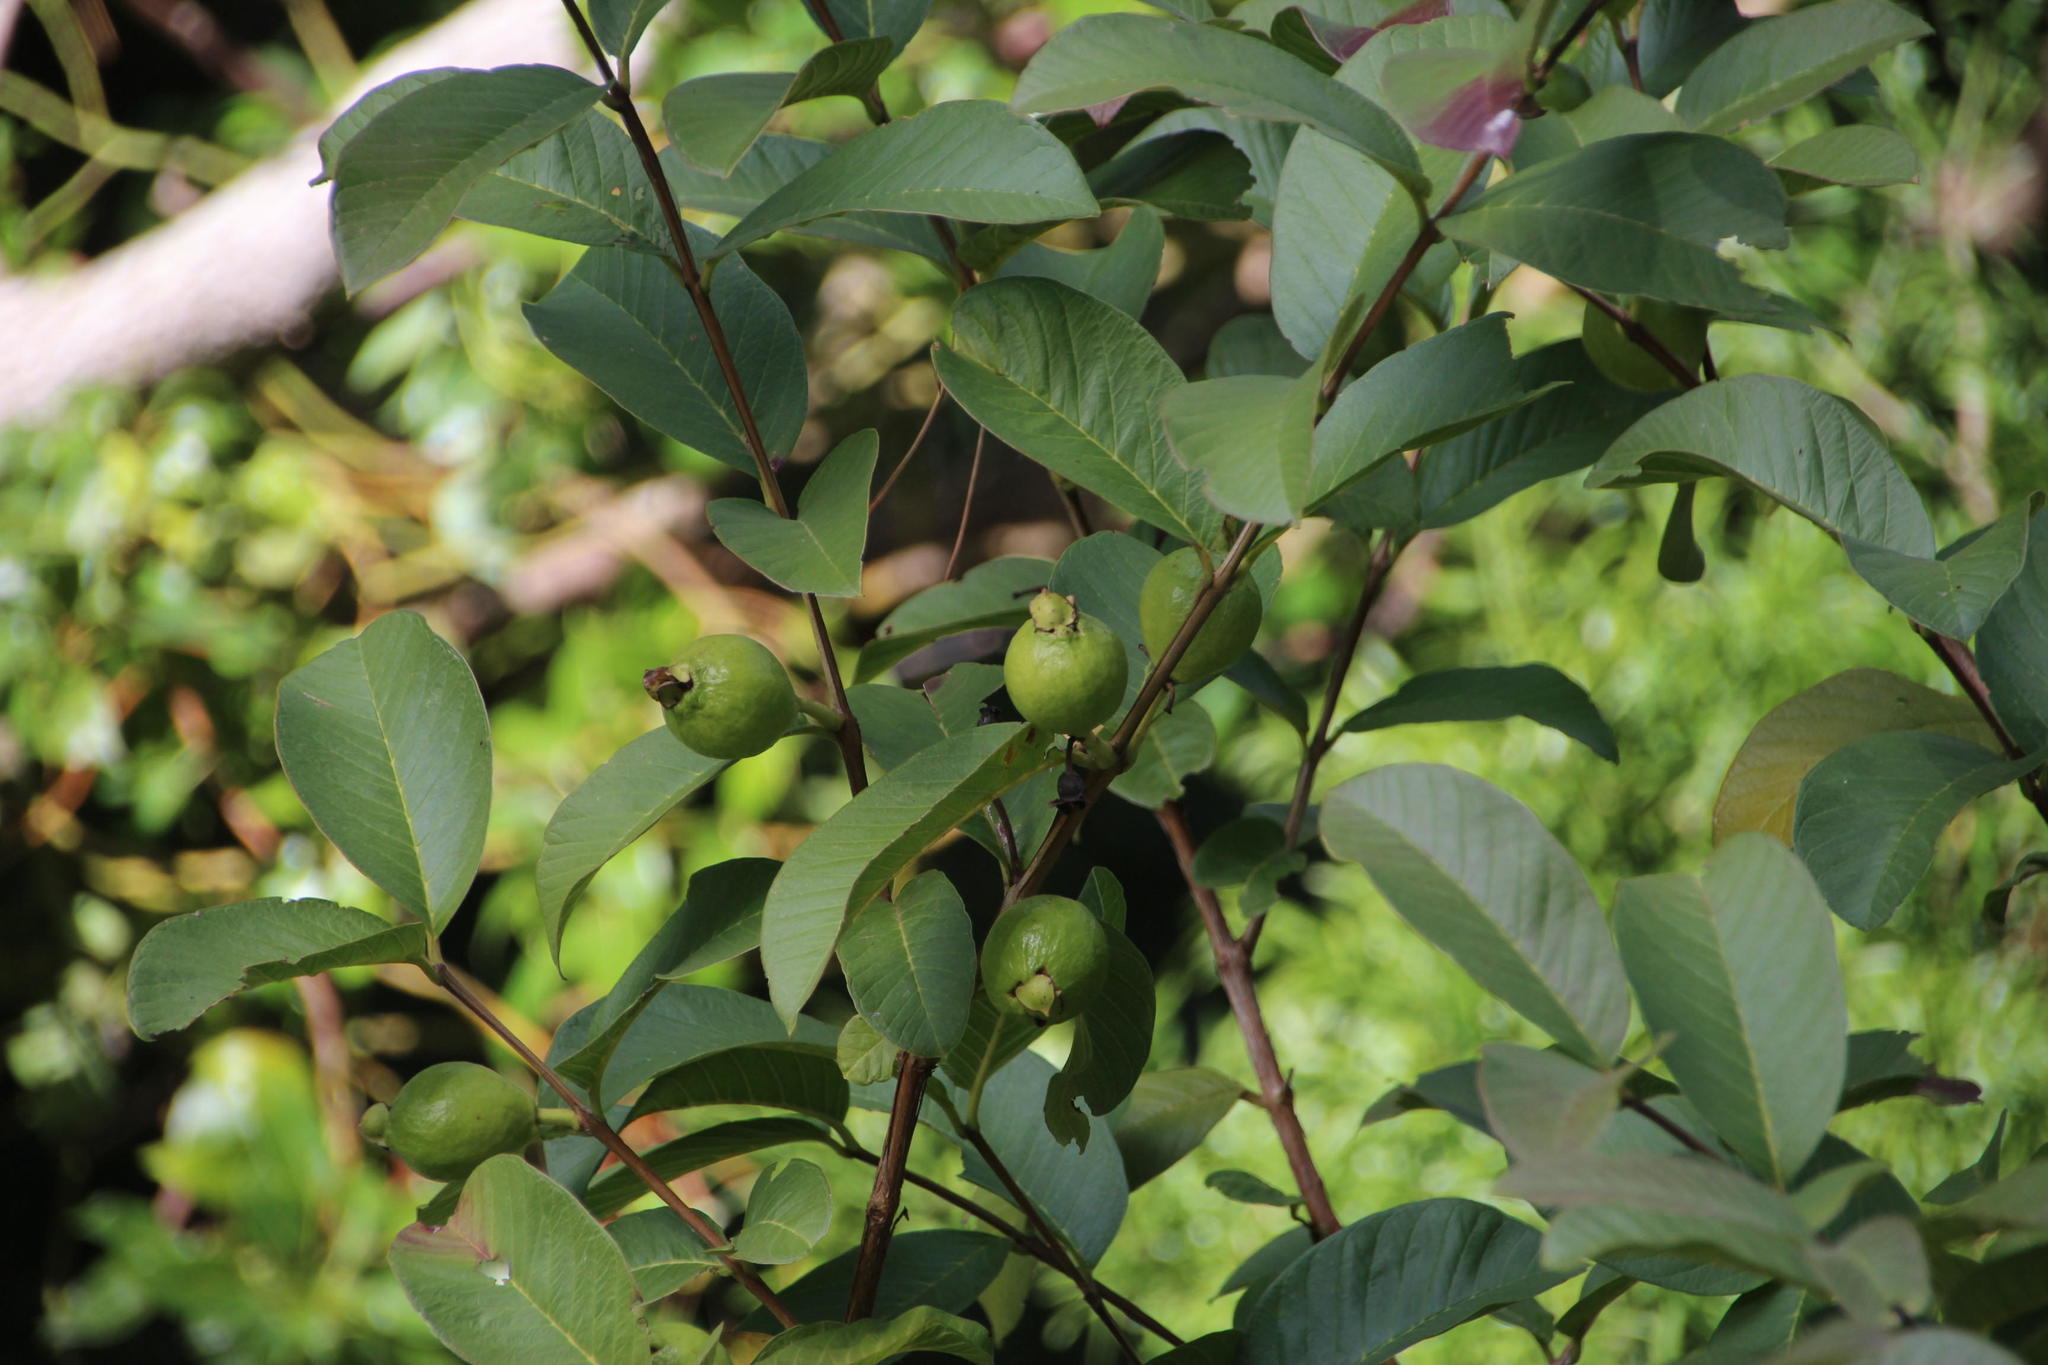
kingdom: Plantae
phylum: Tracheophyta
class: Magnoliopsida
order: Myrtales
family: Myrtaceae
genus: Psidium
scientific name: Psidium guajava
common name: Guava
